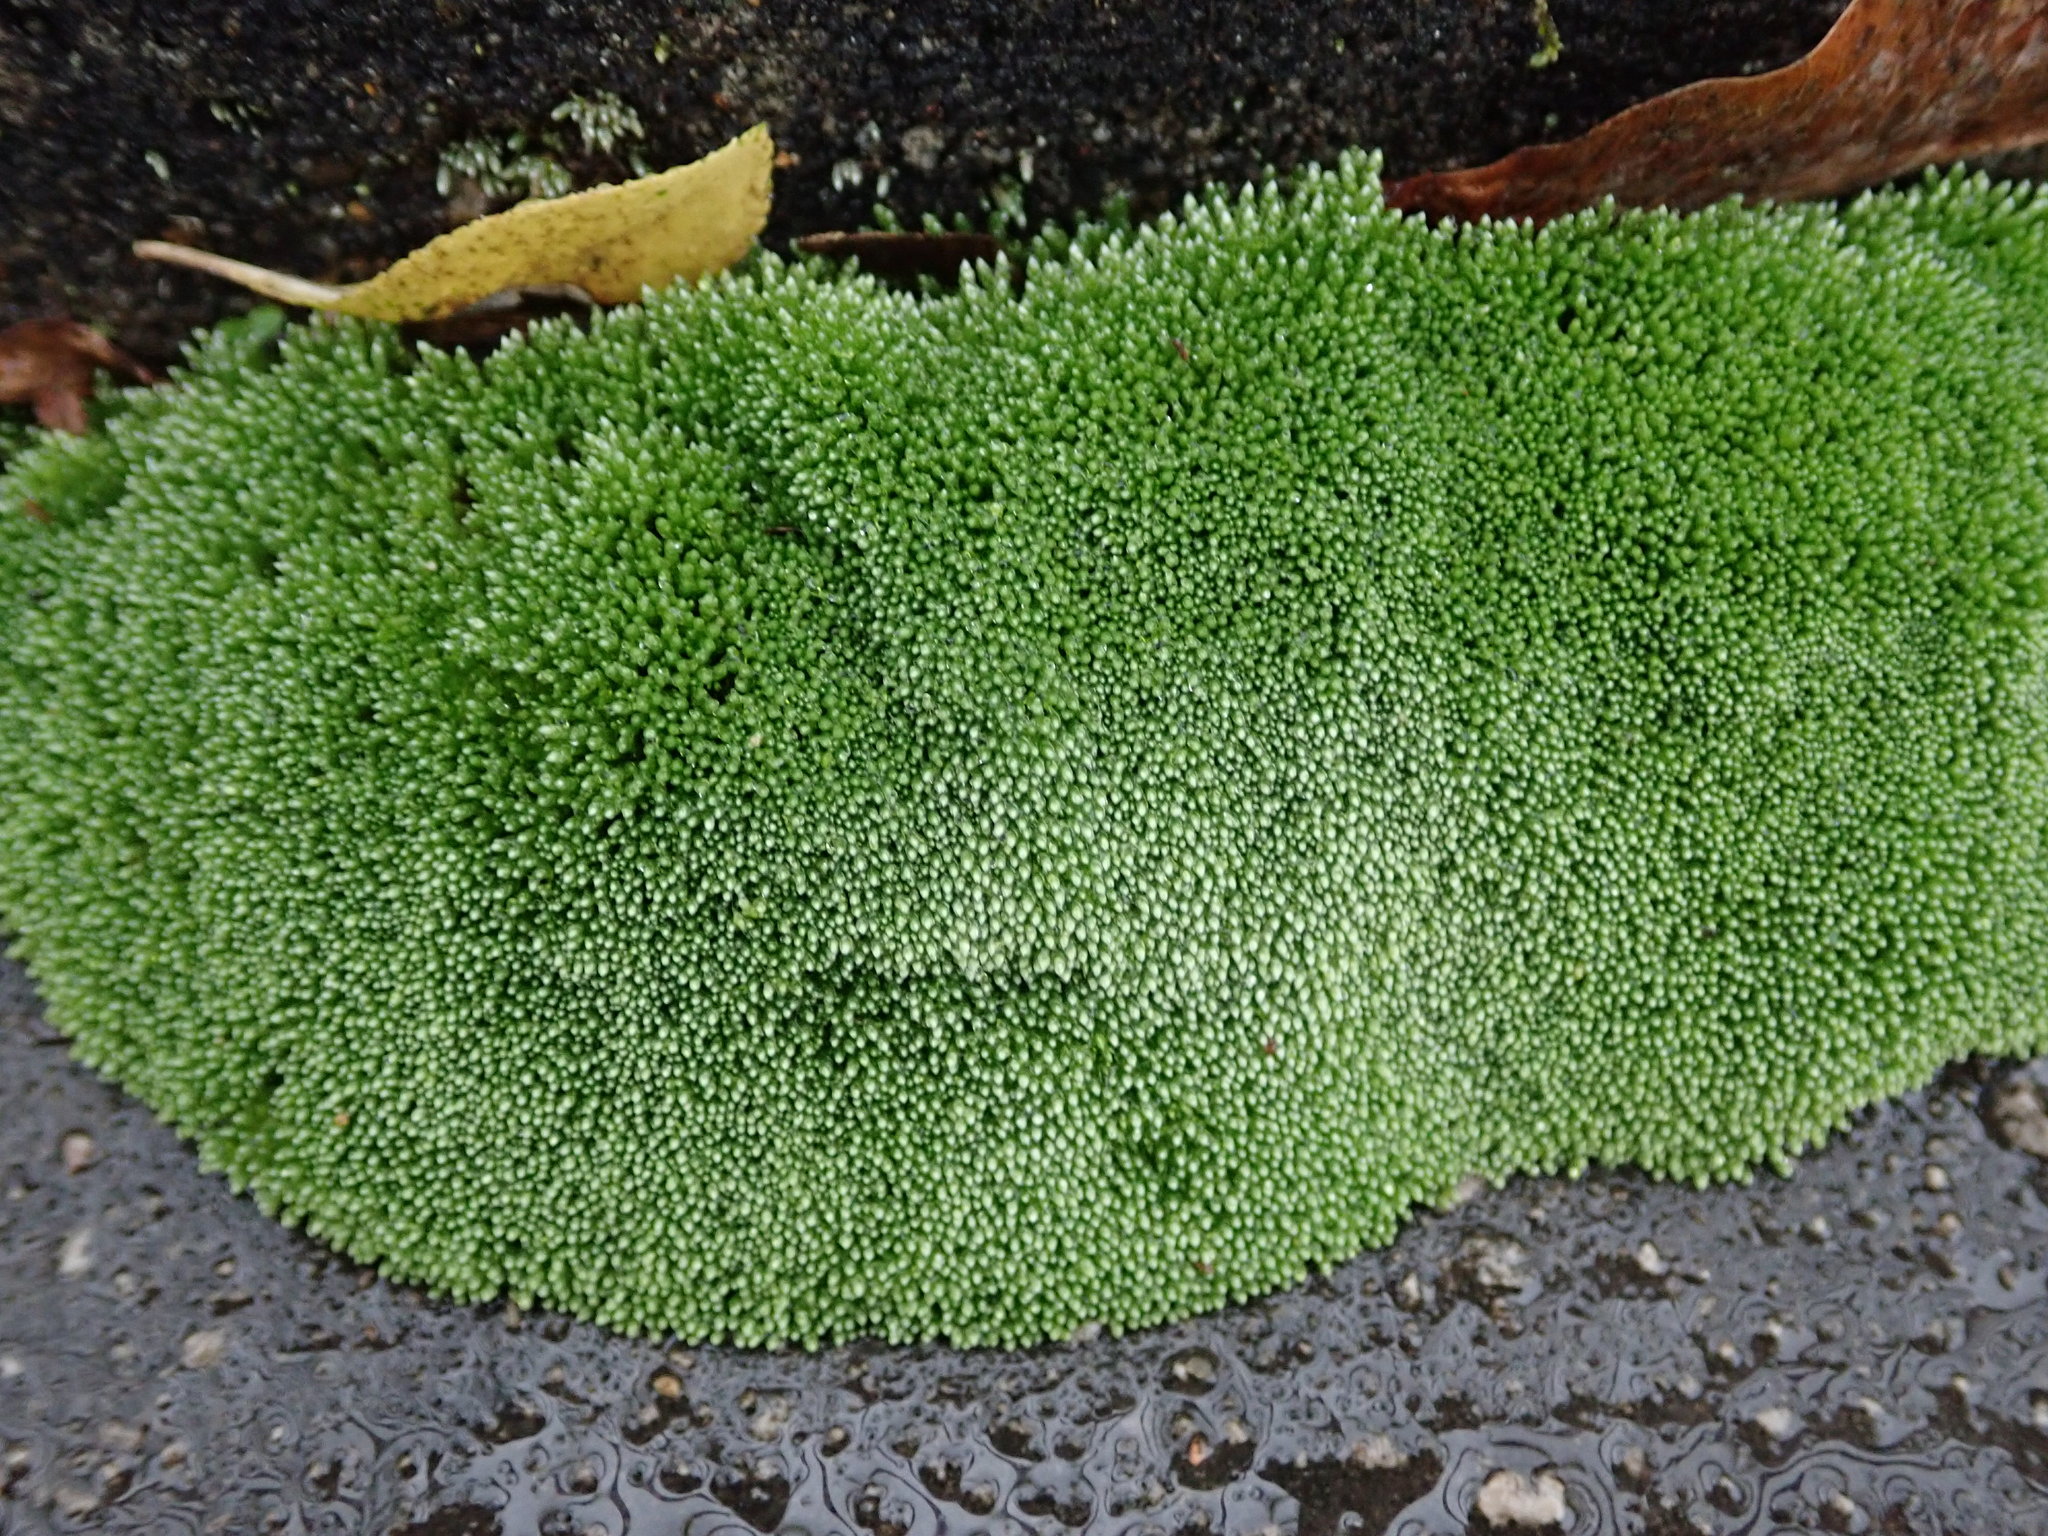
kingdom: Plantae
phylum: Bryophyta
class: Bryopsida
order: Bryales
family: Bryaceae
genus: Bryum
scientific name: Bryum argenteum
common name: Silver-moss
